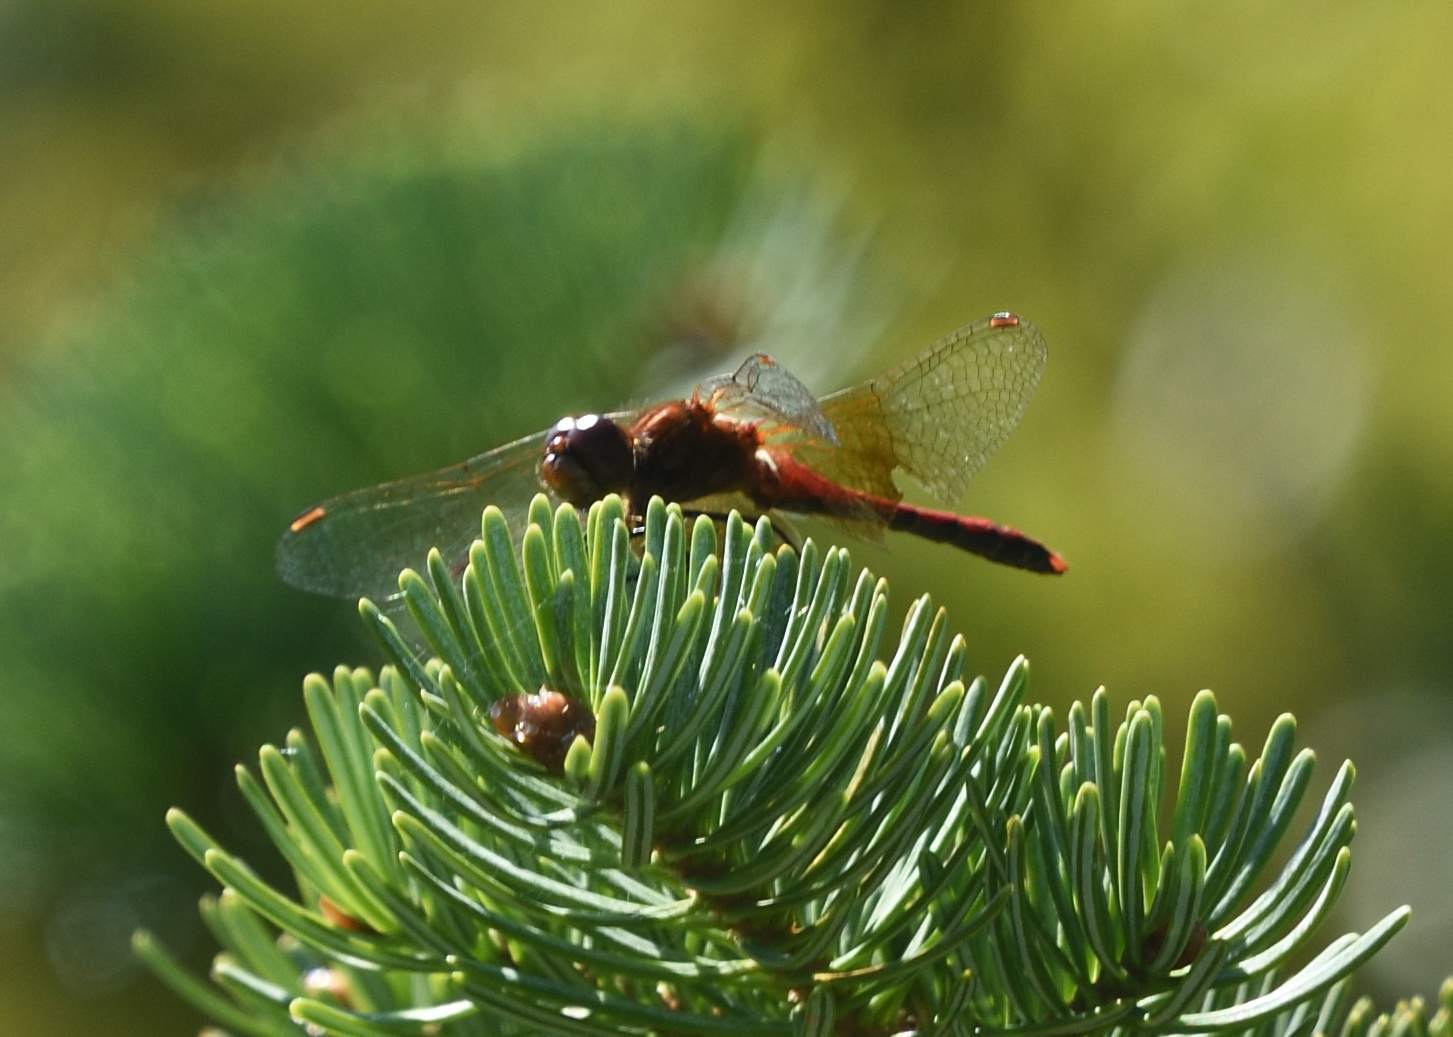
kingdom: Animalia
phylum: Arthropoda
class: Insecta
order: Odonata
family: Libellulidae
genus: Sympetrum
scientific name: Sympetrum semicinctum
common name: Band-winged meadowhawk
